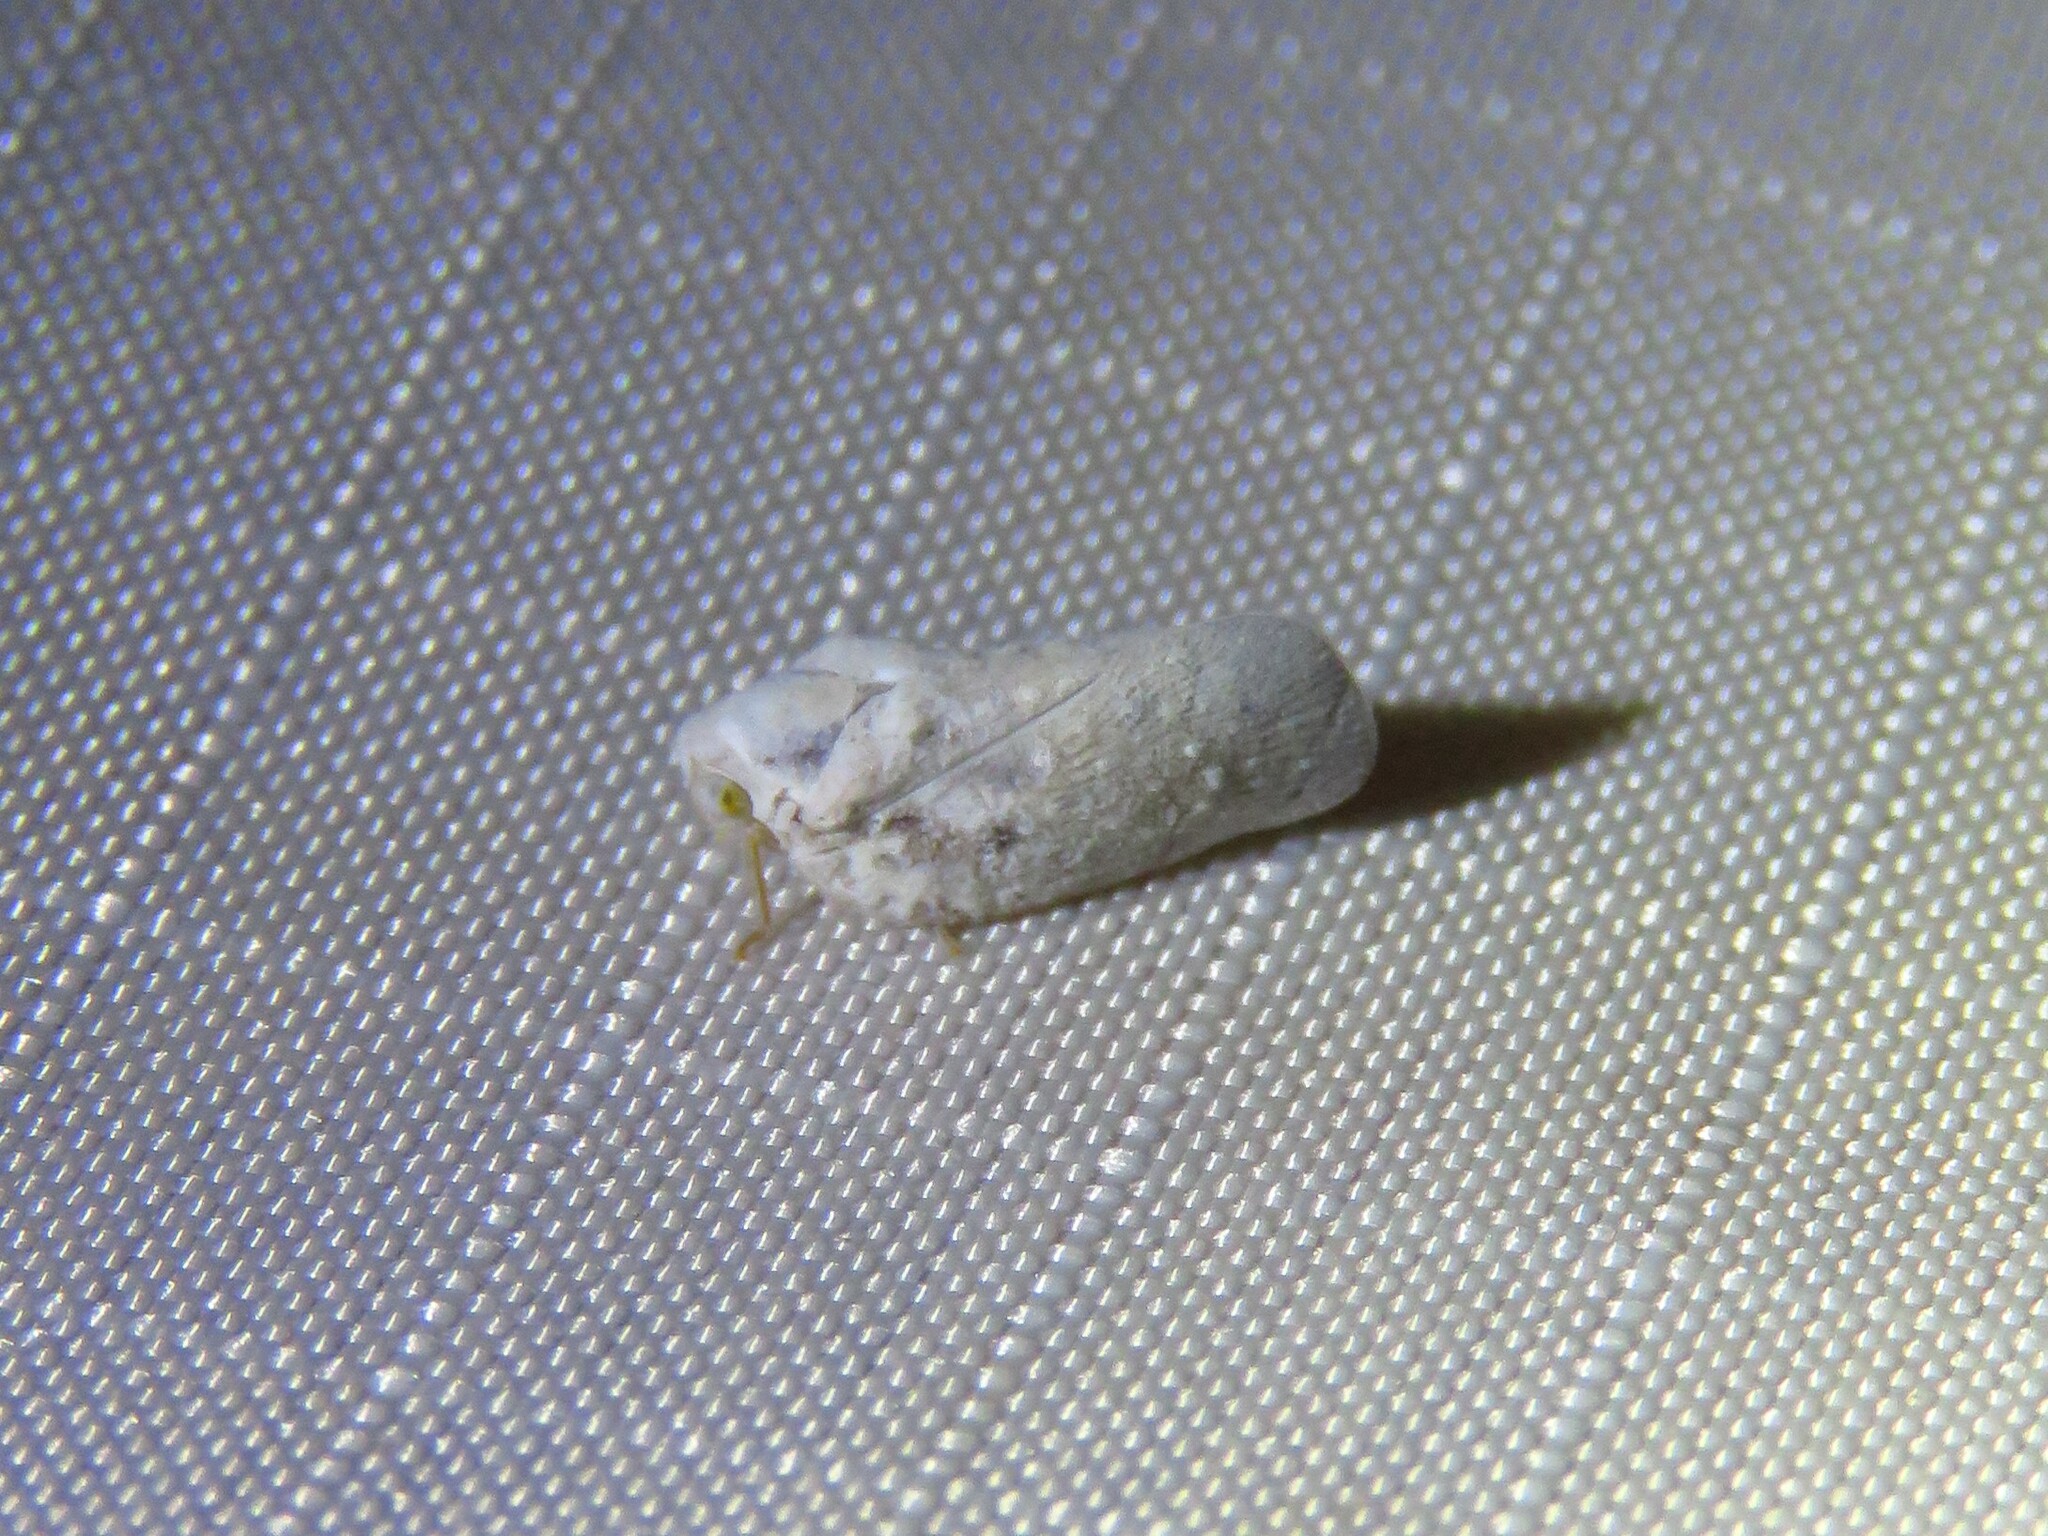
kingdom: Animalia
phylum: Arthropoda
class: Insecta
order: Hemiptera
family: Flatidae
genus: Metcalfa
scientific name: Metcalfa pruinosa
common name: Citrus flatid planthopper
